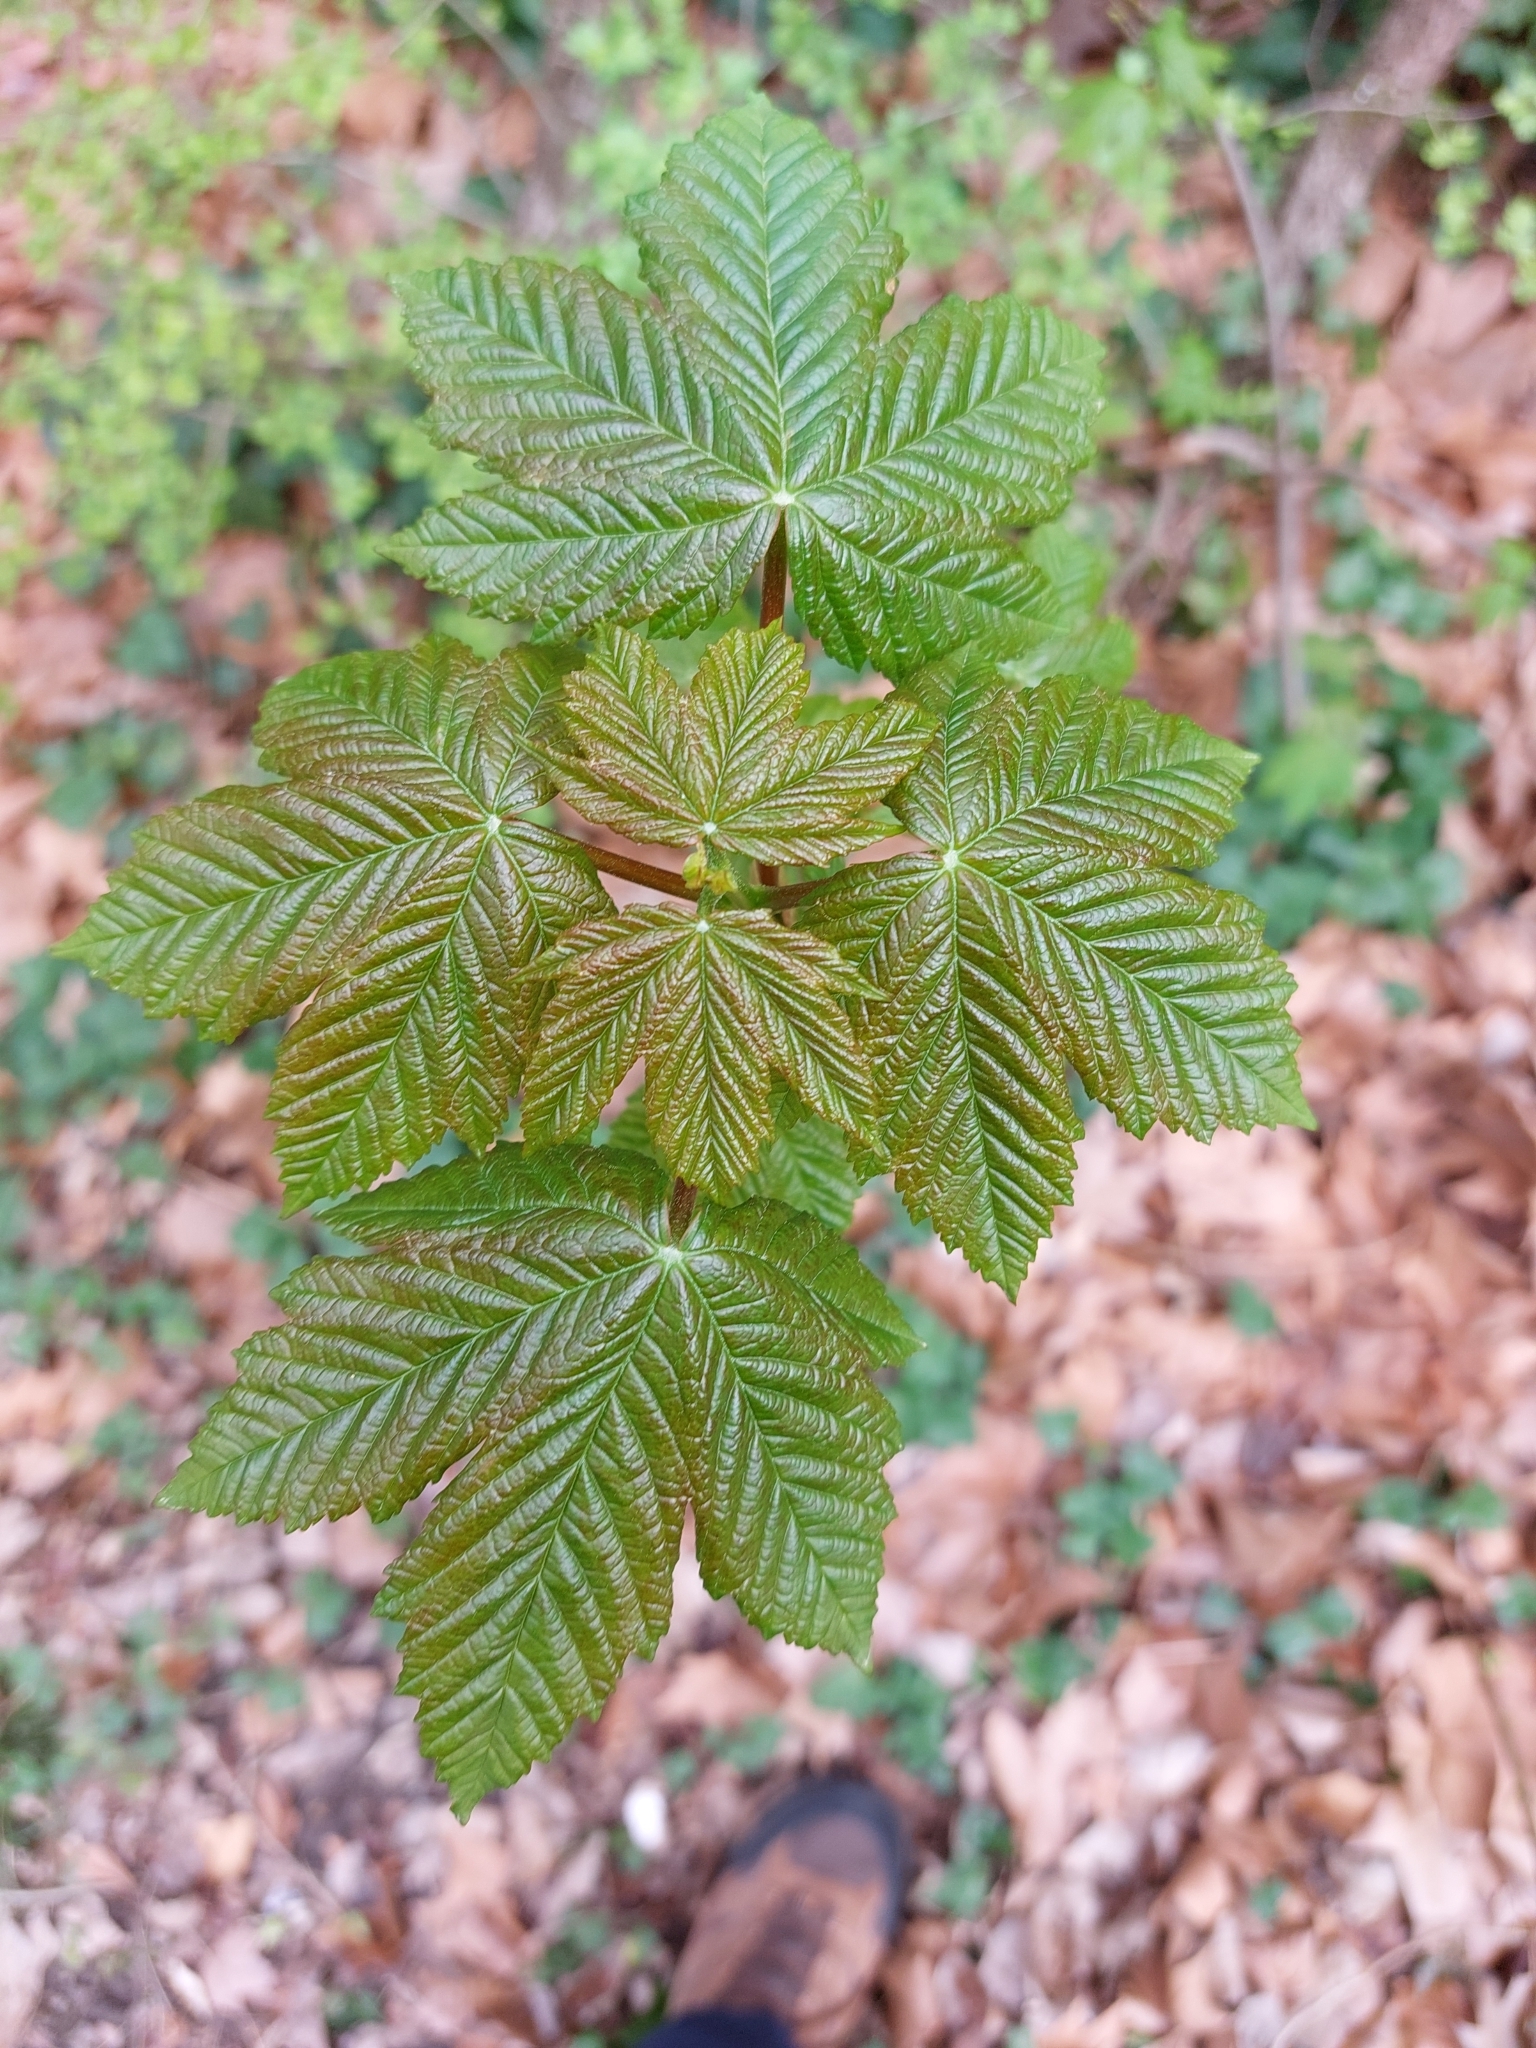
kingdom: Plantae
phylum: Tracheophyta
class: Magnoliopsida
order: Sapindales
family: Sapindaceae
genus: Acer
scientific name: Acer pseudoplatanus
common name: Sycamore
